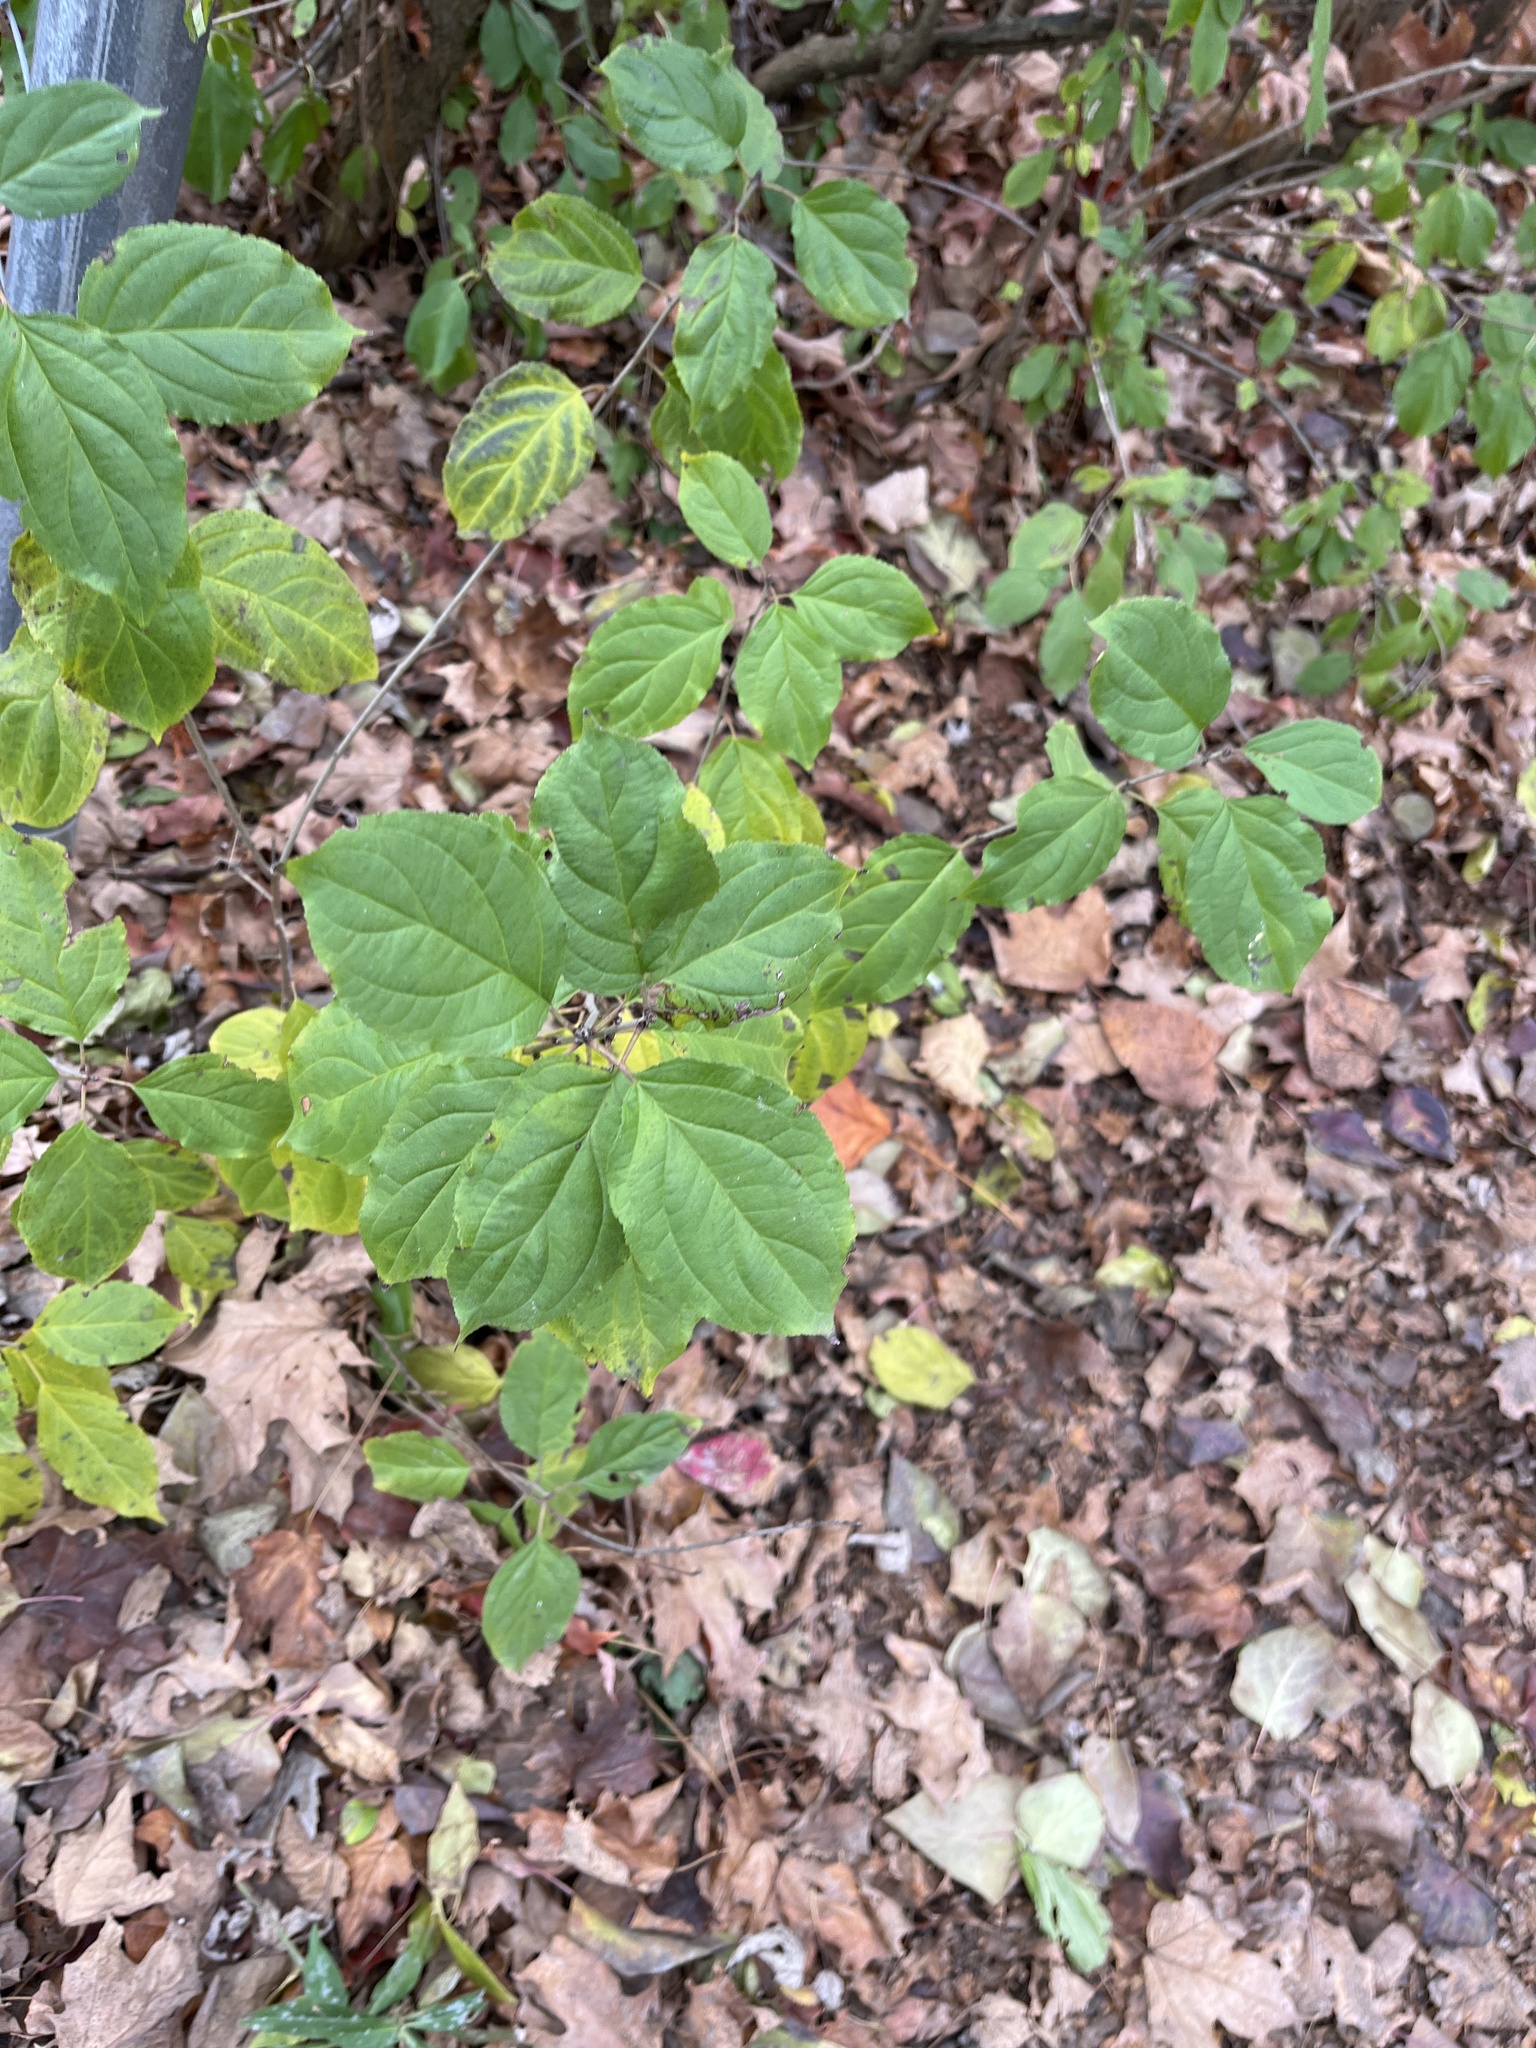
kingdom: Plantae
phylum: Tracheophyta
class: Magnoliopsida
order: Rosales
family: Rhamnaceae
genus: Rhamnus
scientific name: Rhamnus cathartica
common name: Common buckthorn
